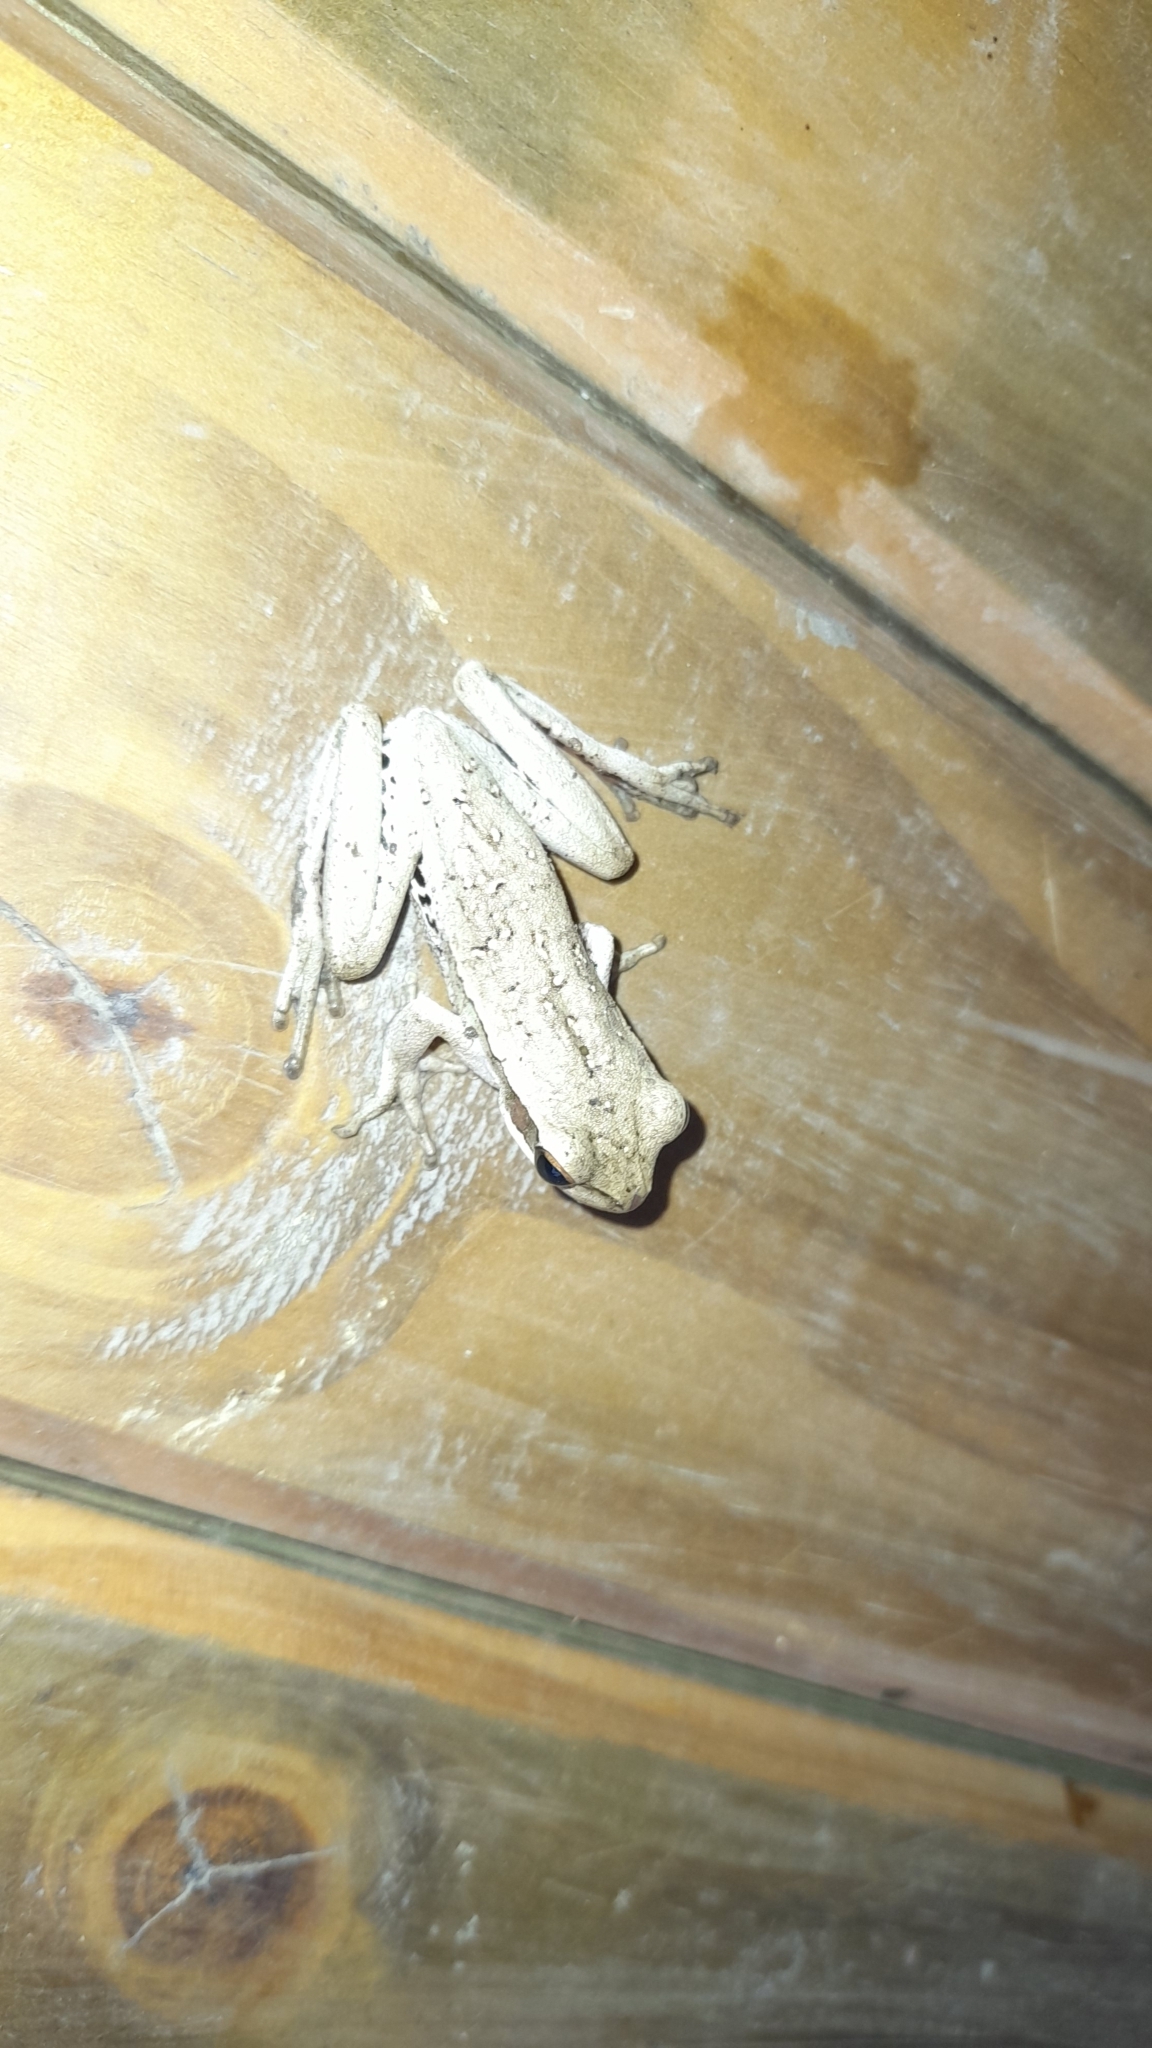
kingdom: Animalia
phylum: Chordata
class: Amphibia
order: Anura
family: Hylidae
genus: Boana
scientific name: Boana pulchella
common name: Montevideo treefrog
